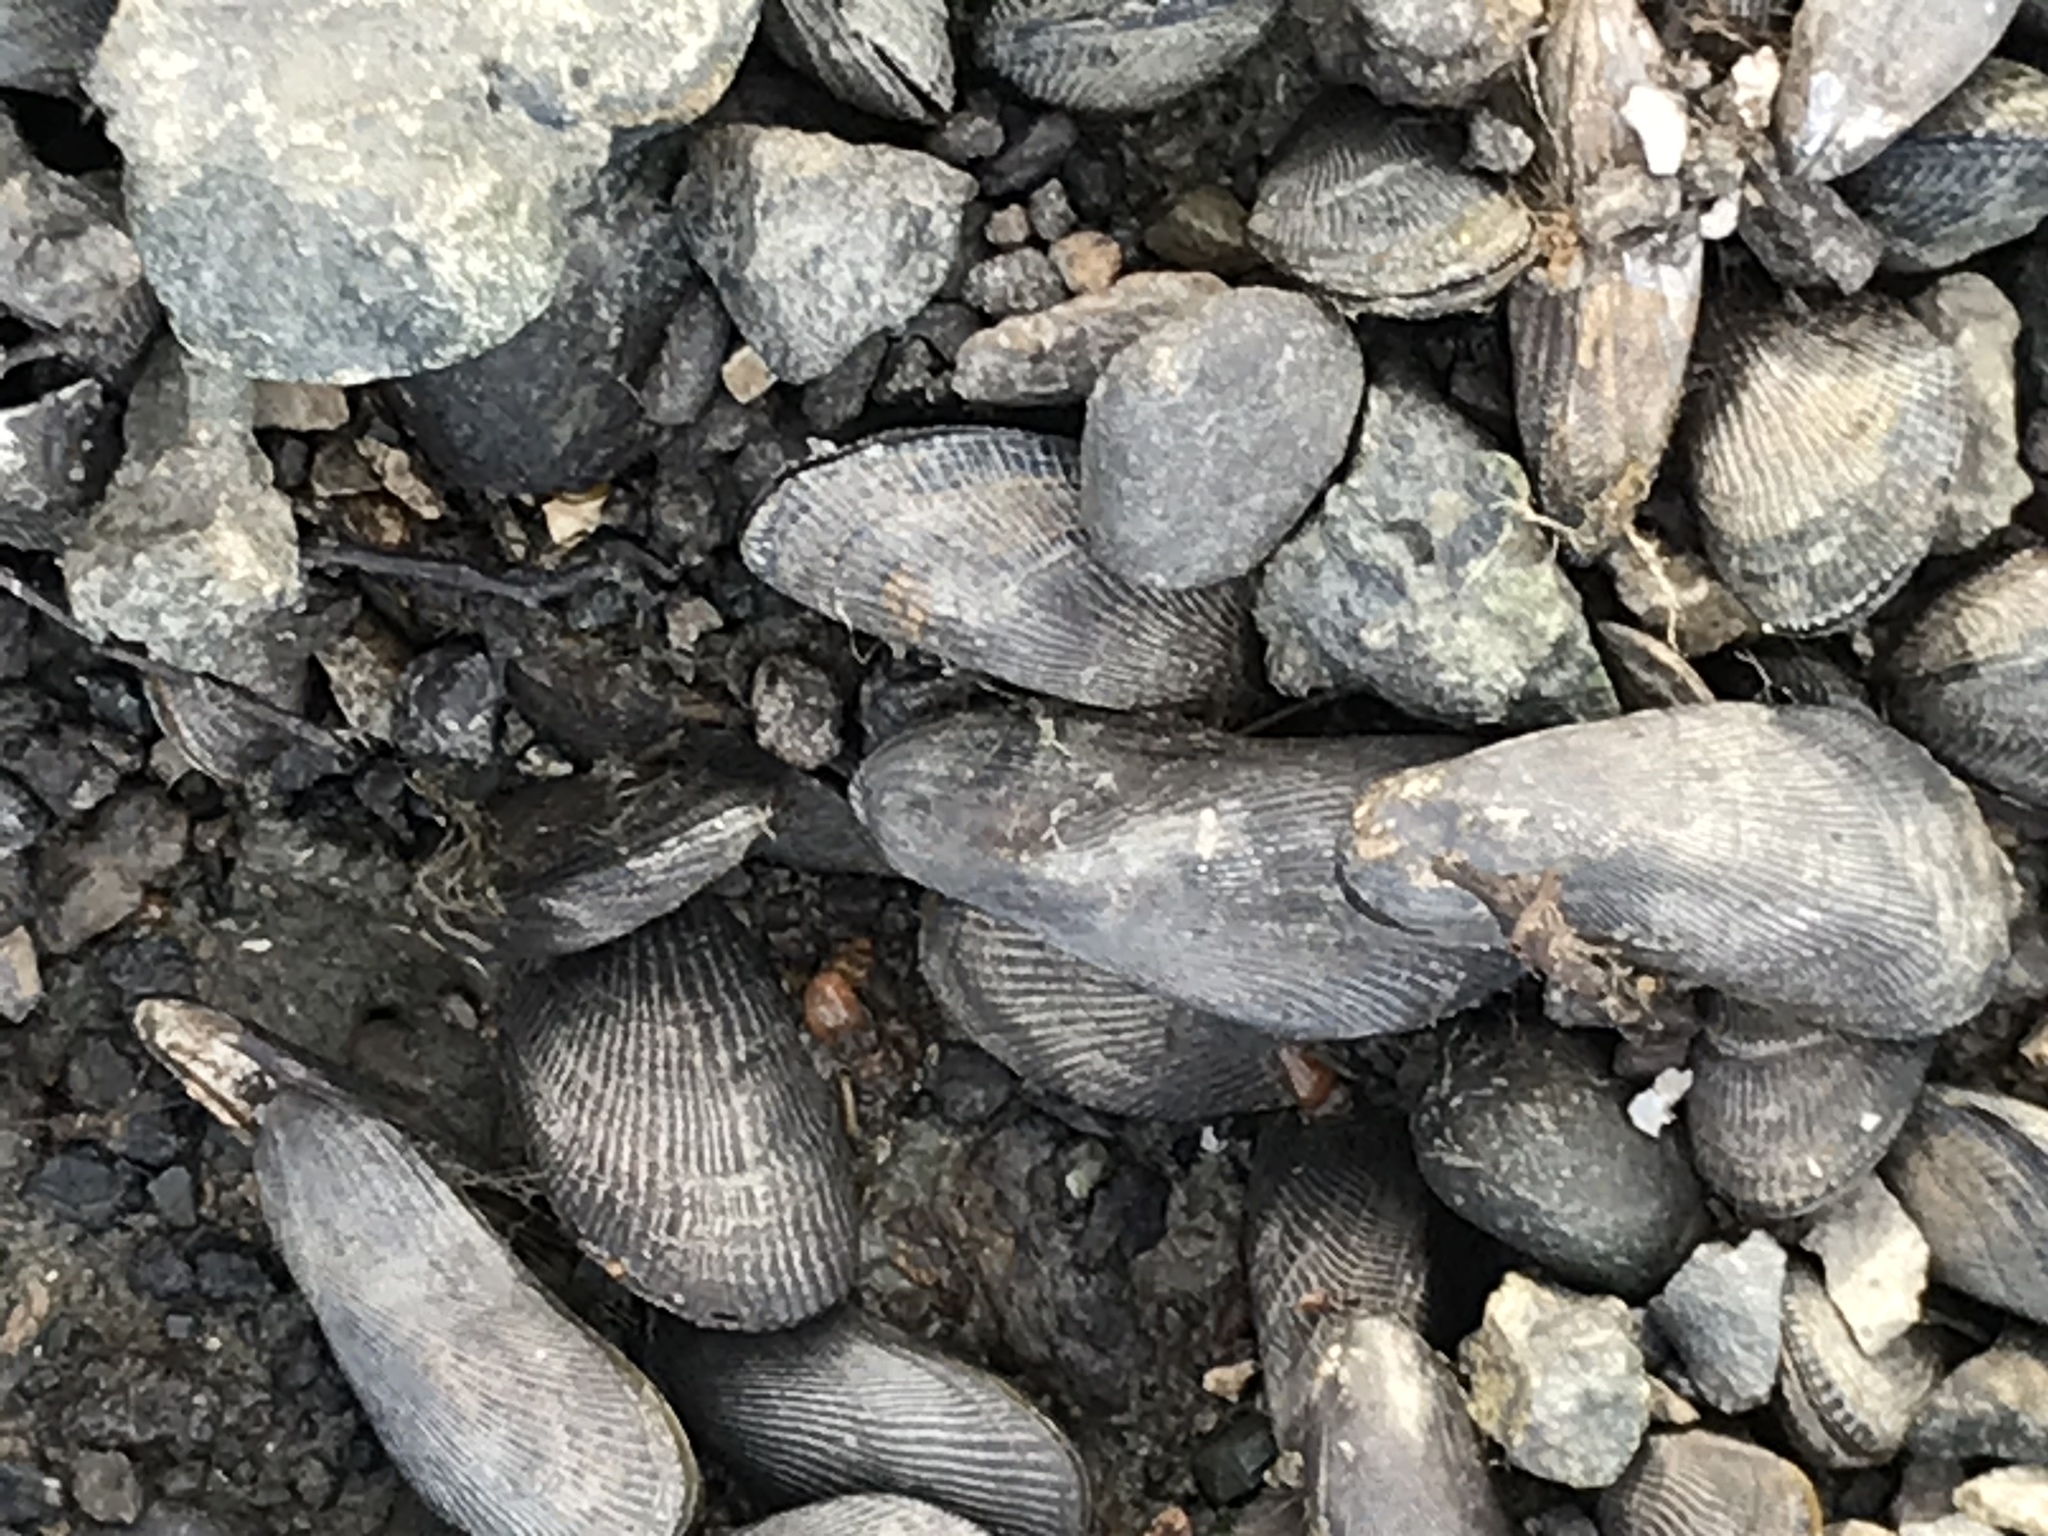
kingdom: Animalia
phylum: Mollusca
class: Bivalvia
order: Mytilida
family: Mytilidae
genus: Geukensia
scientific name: Geukensia demissa
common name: Ribbed mussel
